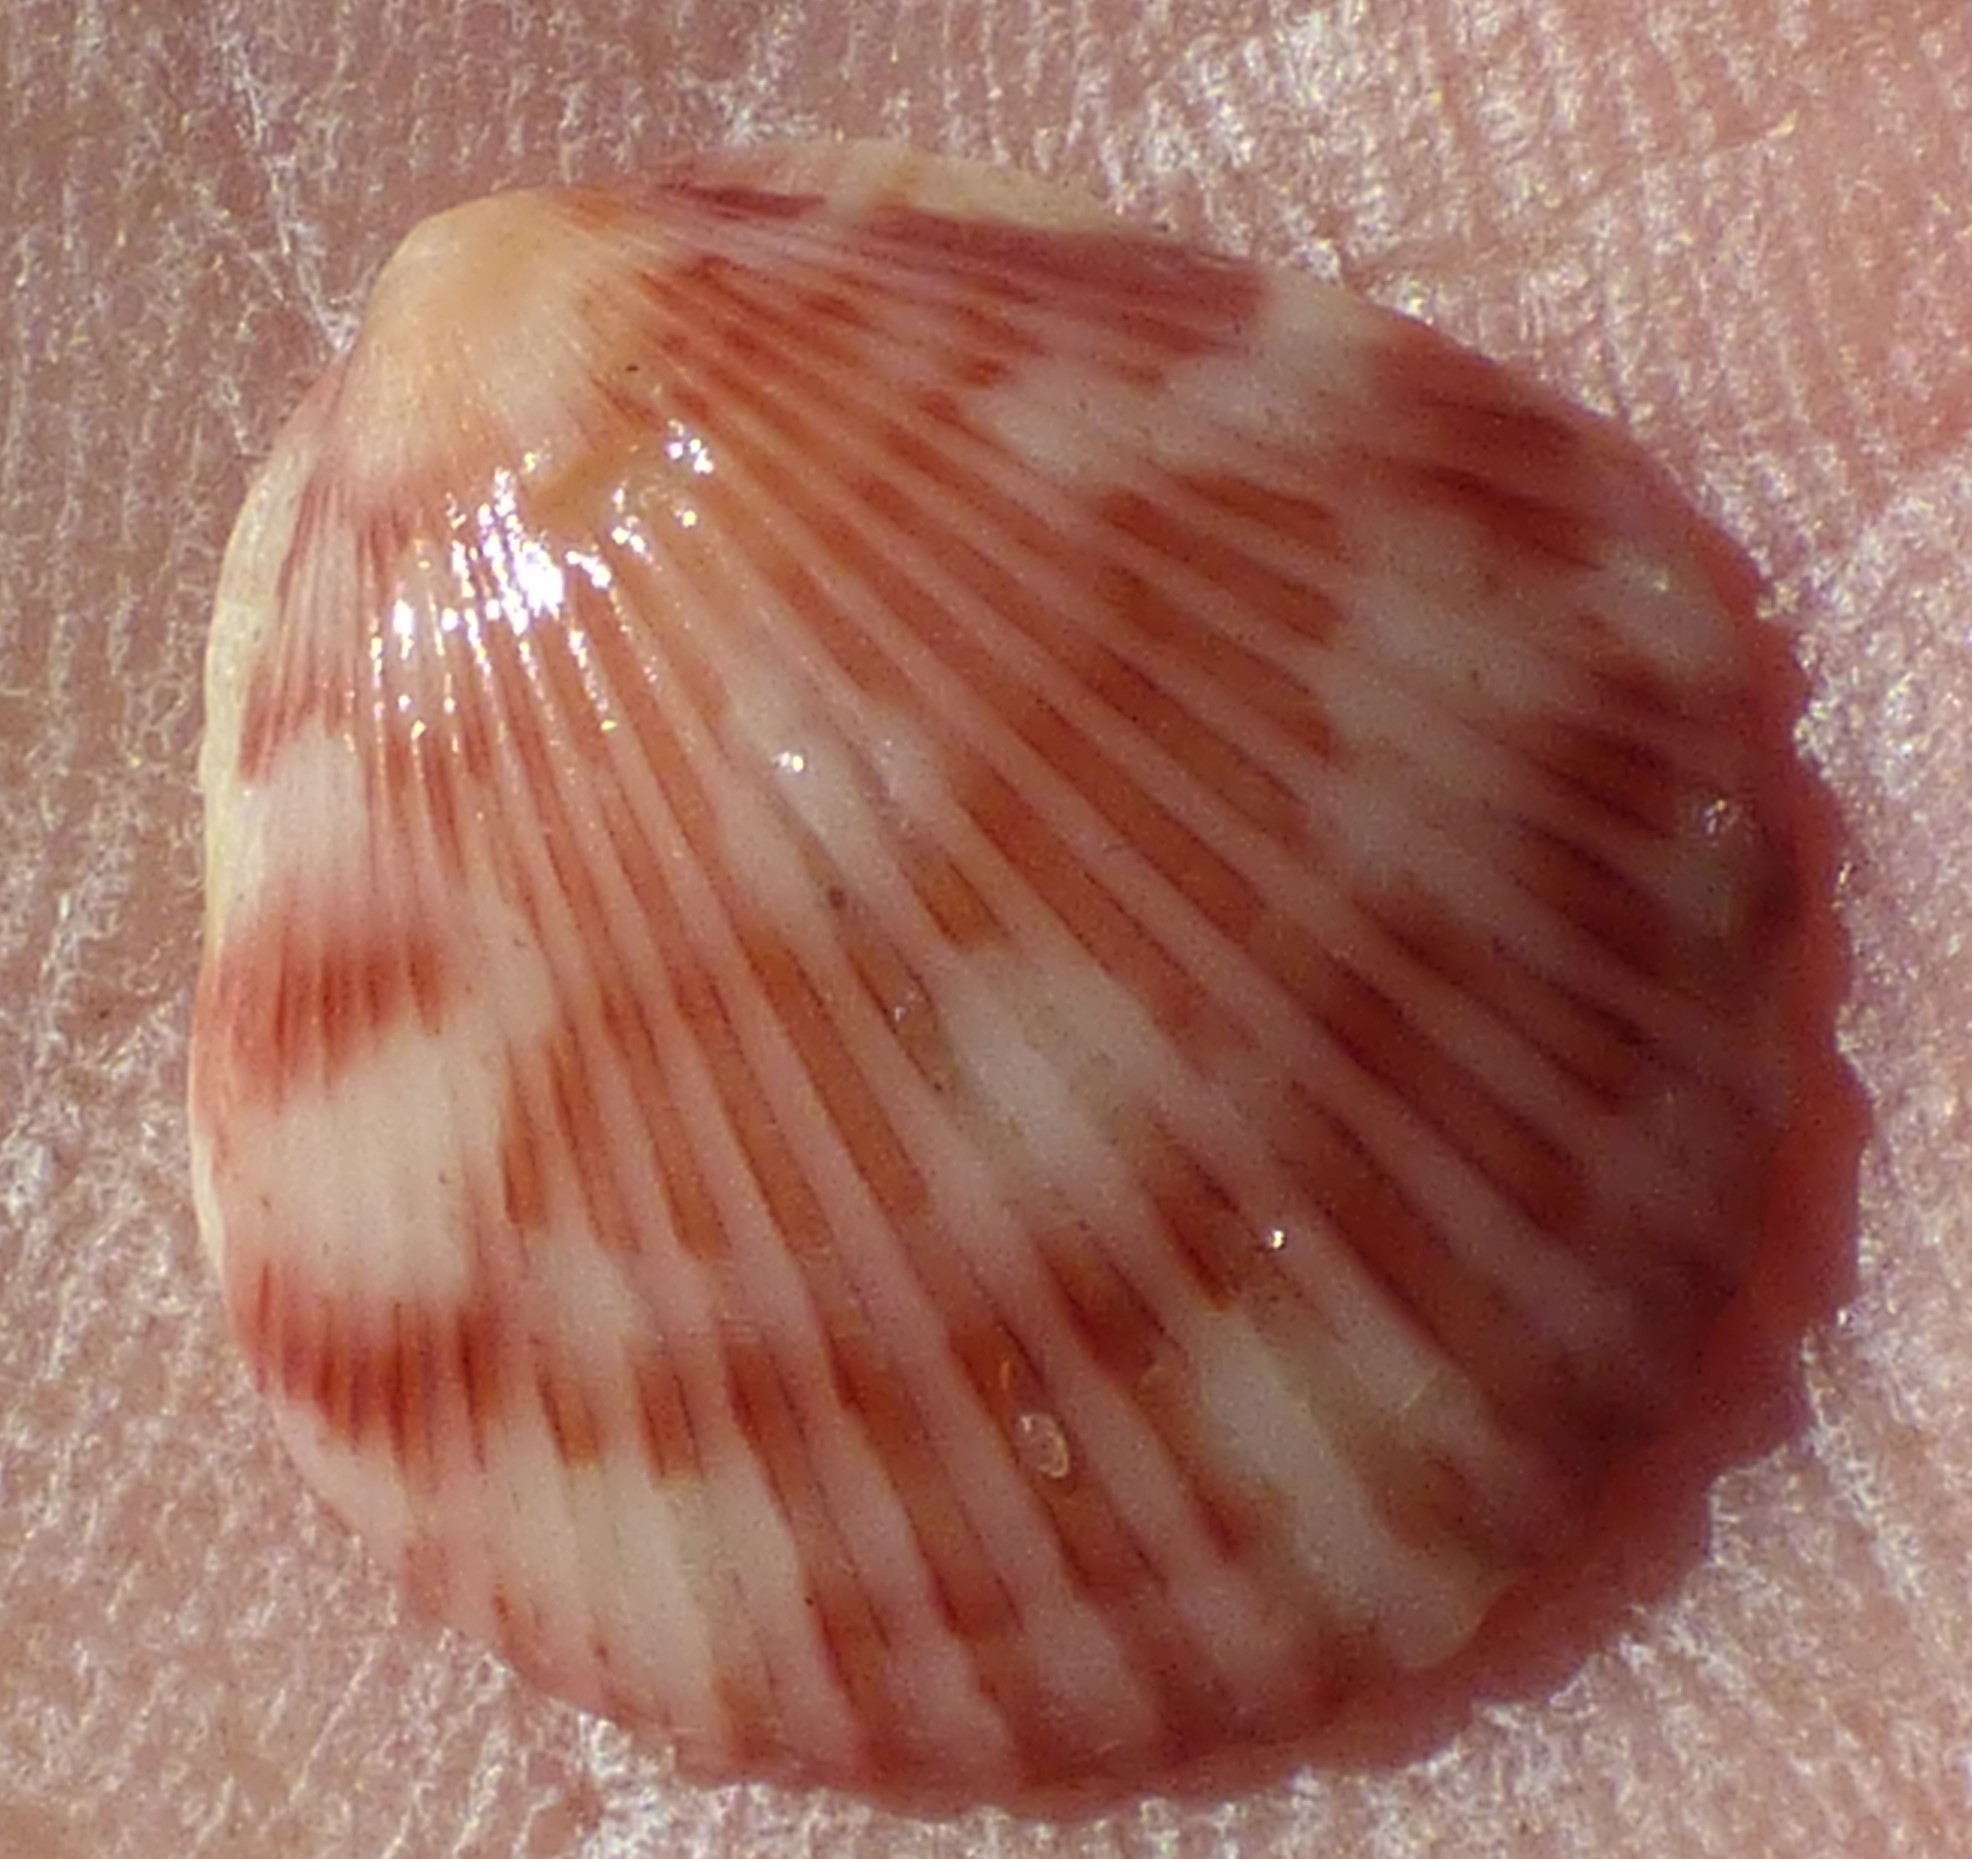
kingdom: Animalia
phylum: Mollusca
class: Bivalvia
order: Pectinida
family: Pectinidae
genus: Argopecten
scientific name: Argopecten gibbus
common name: Atlantic calico scallop
